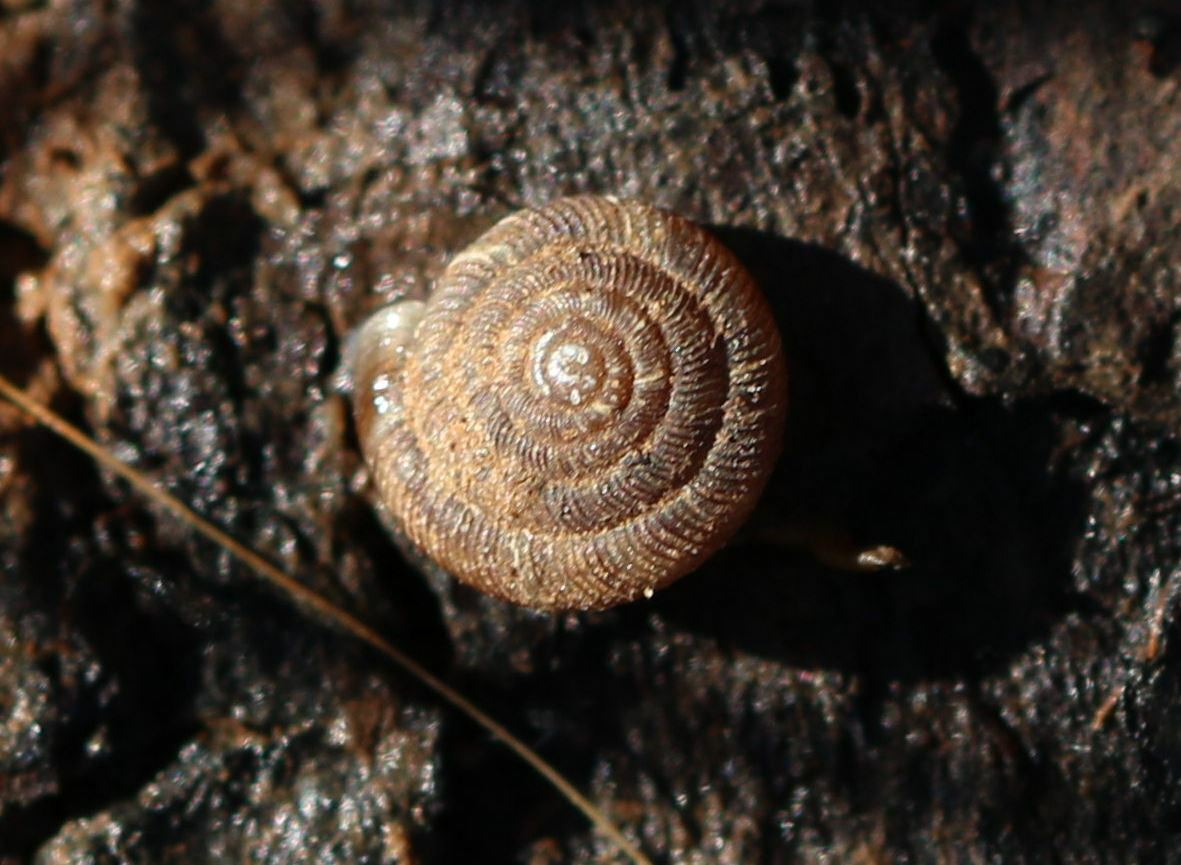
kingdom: Animalia
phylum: Mollusca
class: Gastropoda
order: Stylommatophora
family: Discidae
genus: Discus
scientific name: Discus rotundatus
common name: Rounded snail
